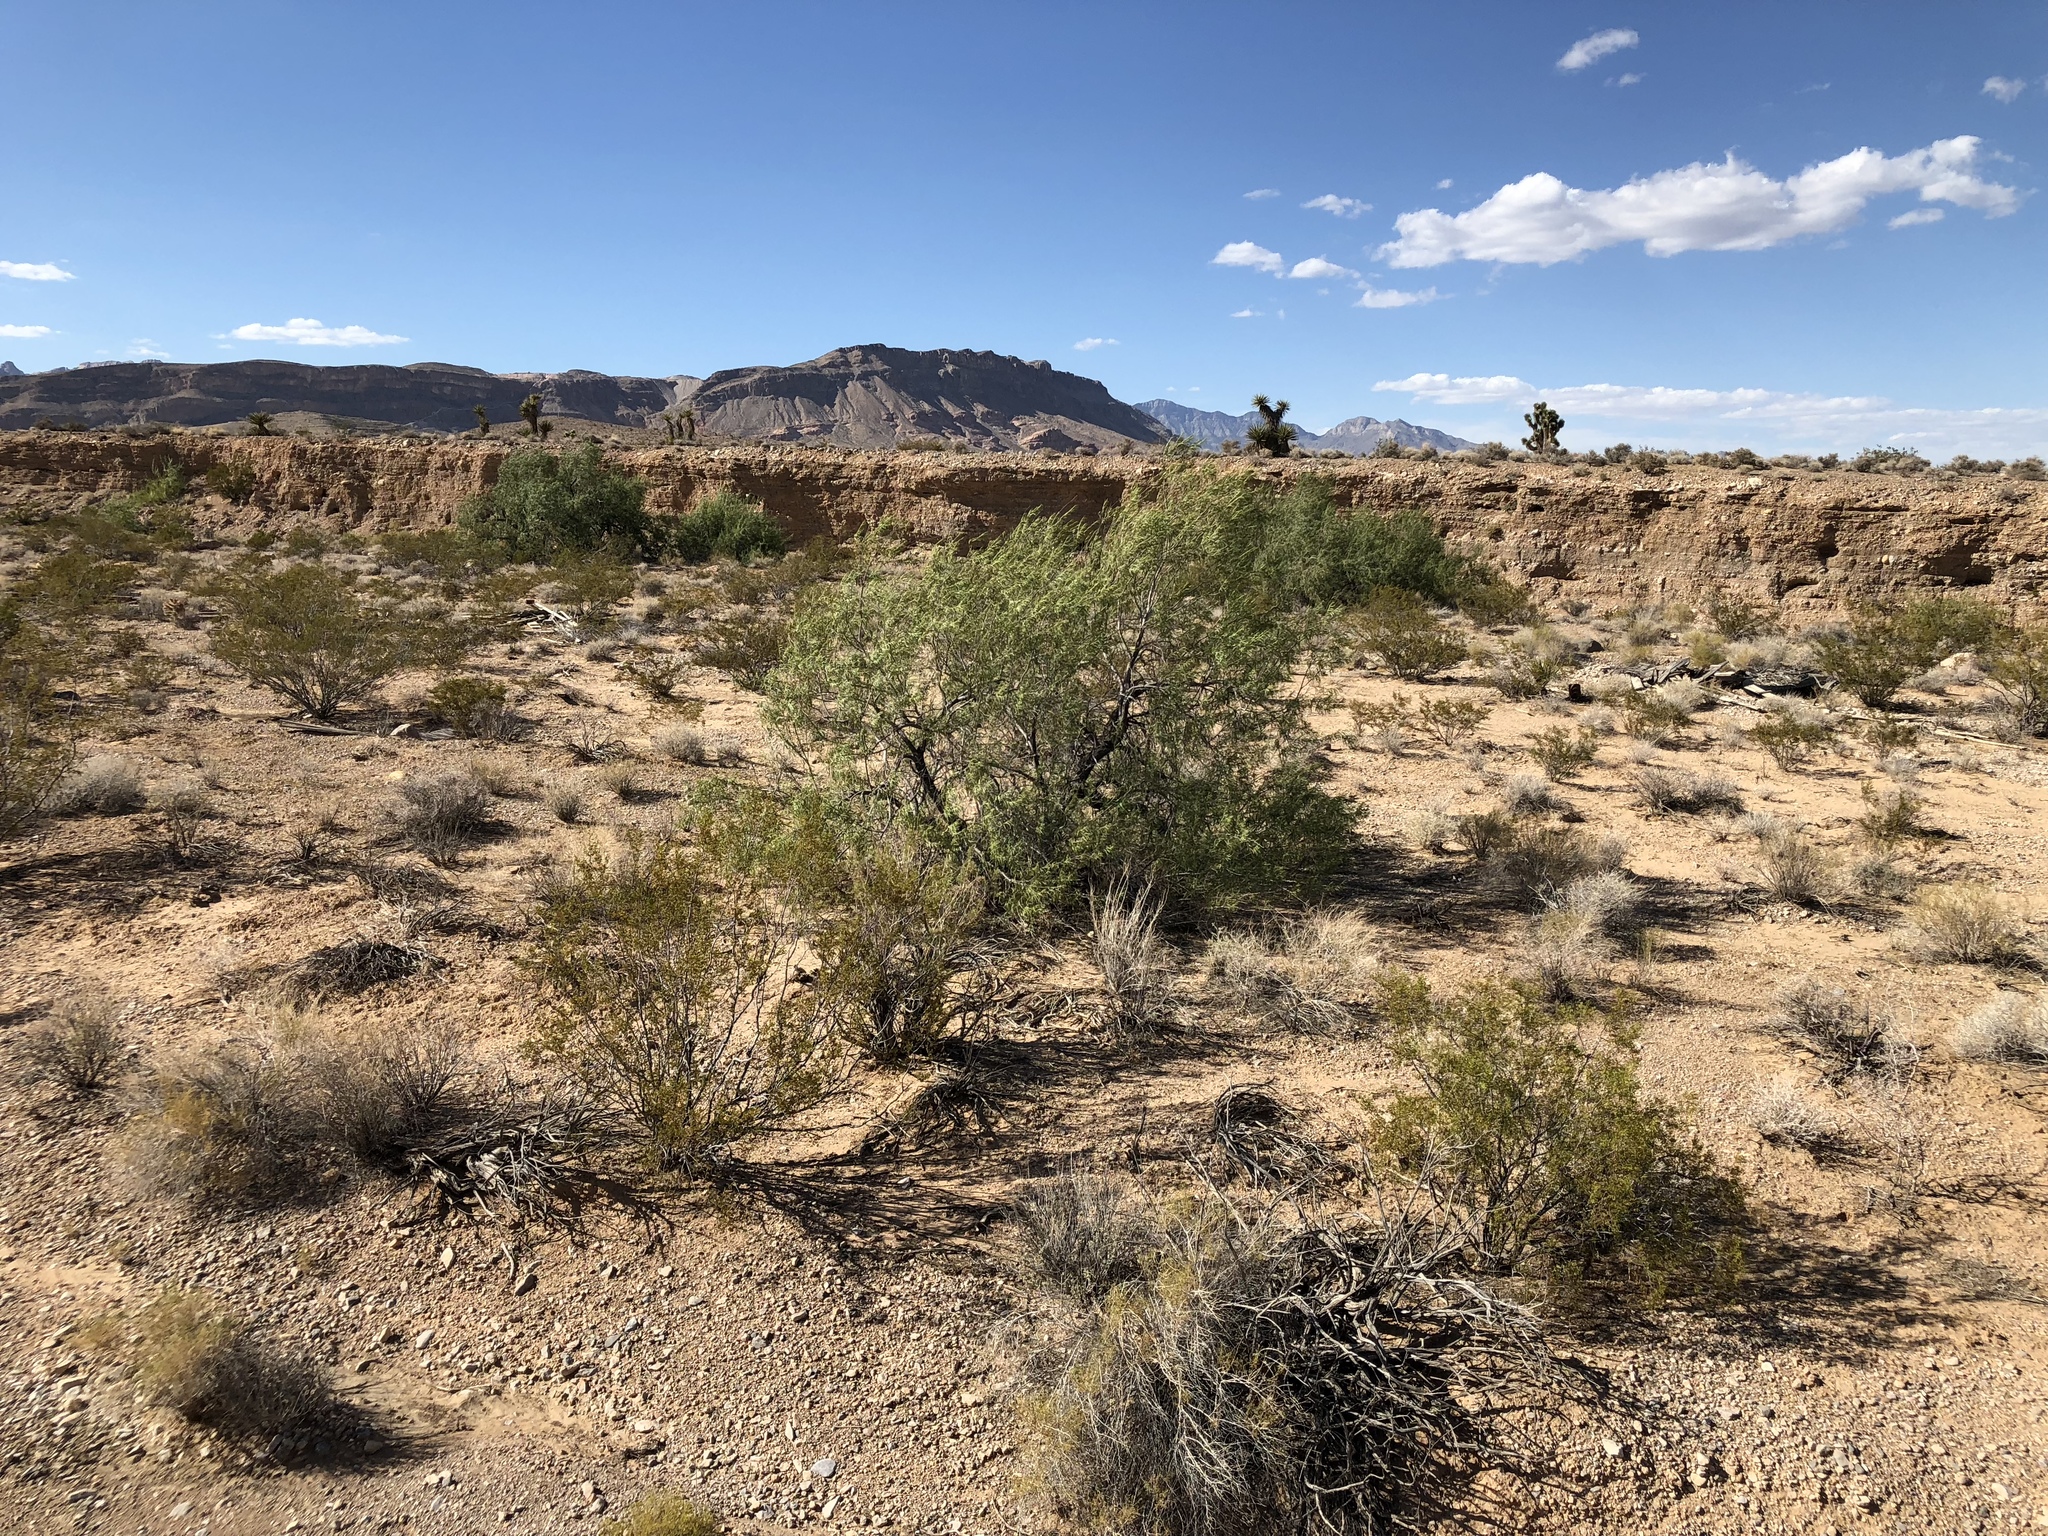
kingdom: Plantae
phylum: Tracheophyta
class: Magnoliopsida
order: Lamiales
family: Bignoniaceae
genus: Chilopsis
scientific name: Chilopsis linearis
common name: Desert-willow
